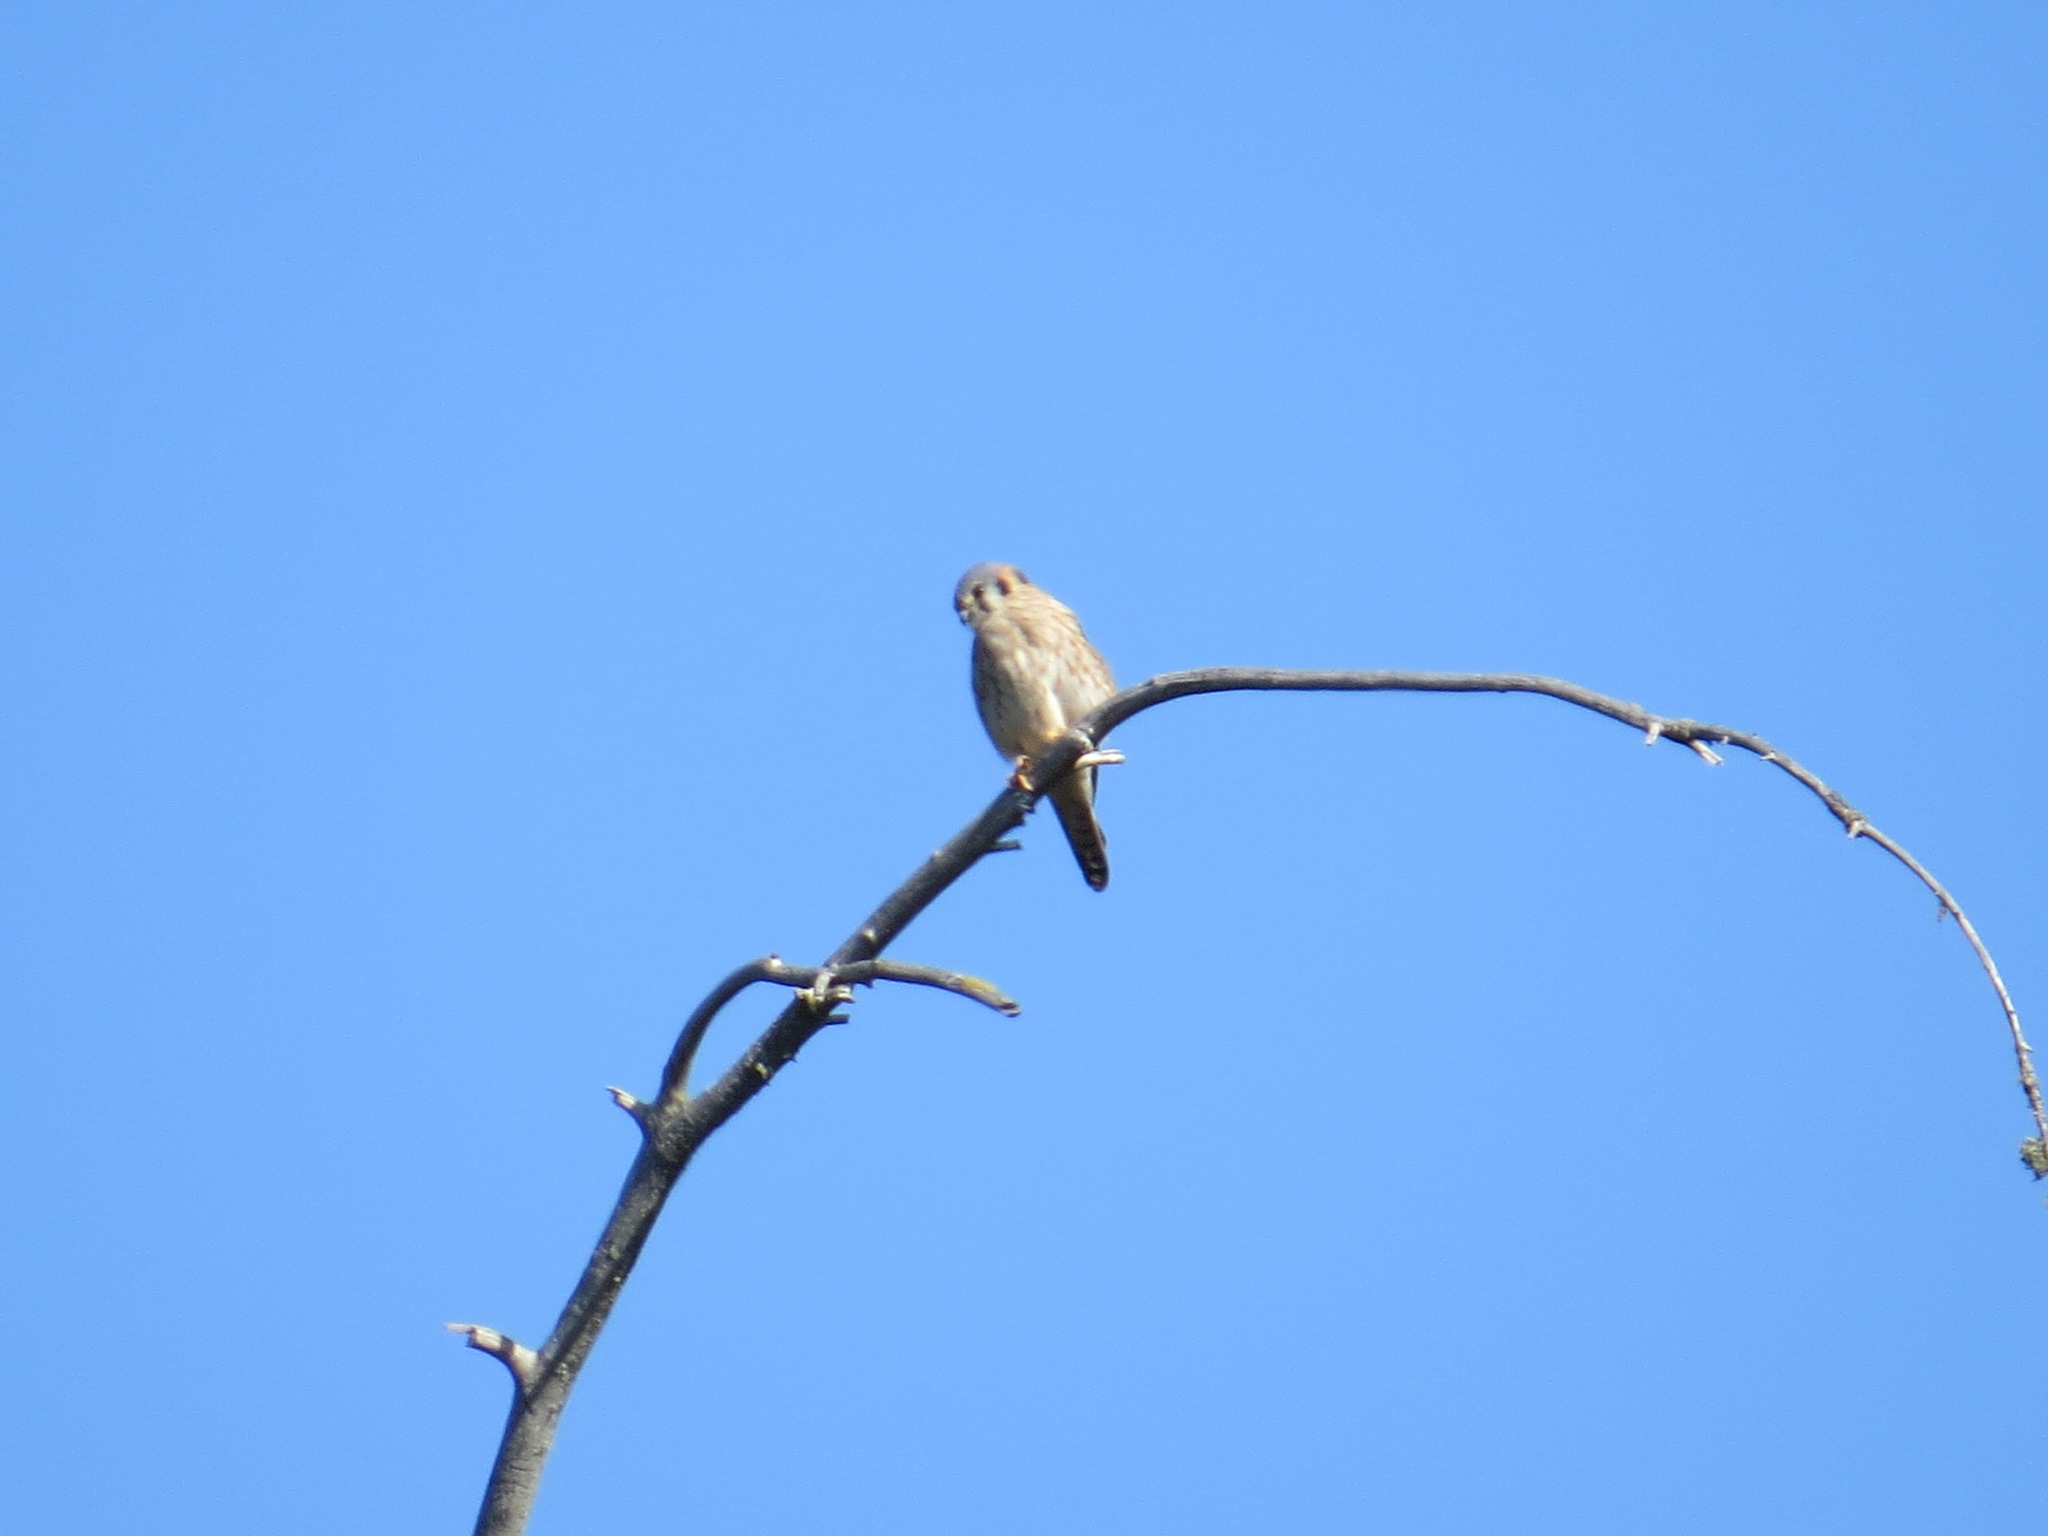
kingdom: Animalia
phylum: Chordata
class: Aves
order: Falconiformes
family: Falconidae
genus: Falco
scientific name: Falco sparverius
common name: American kestrel
